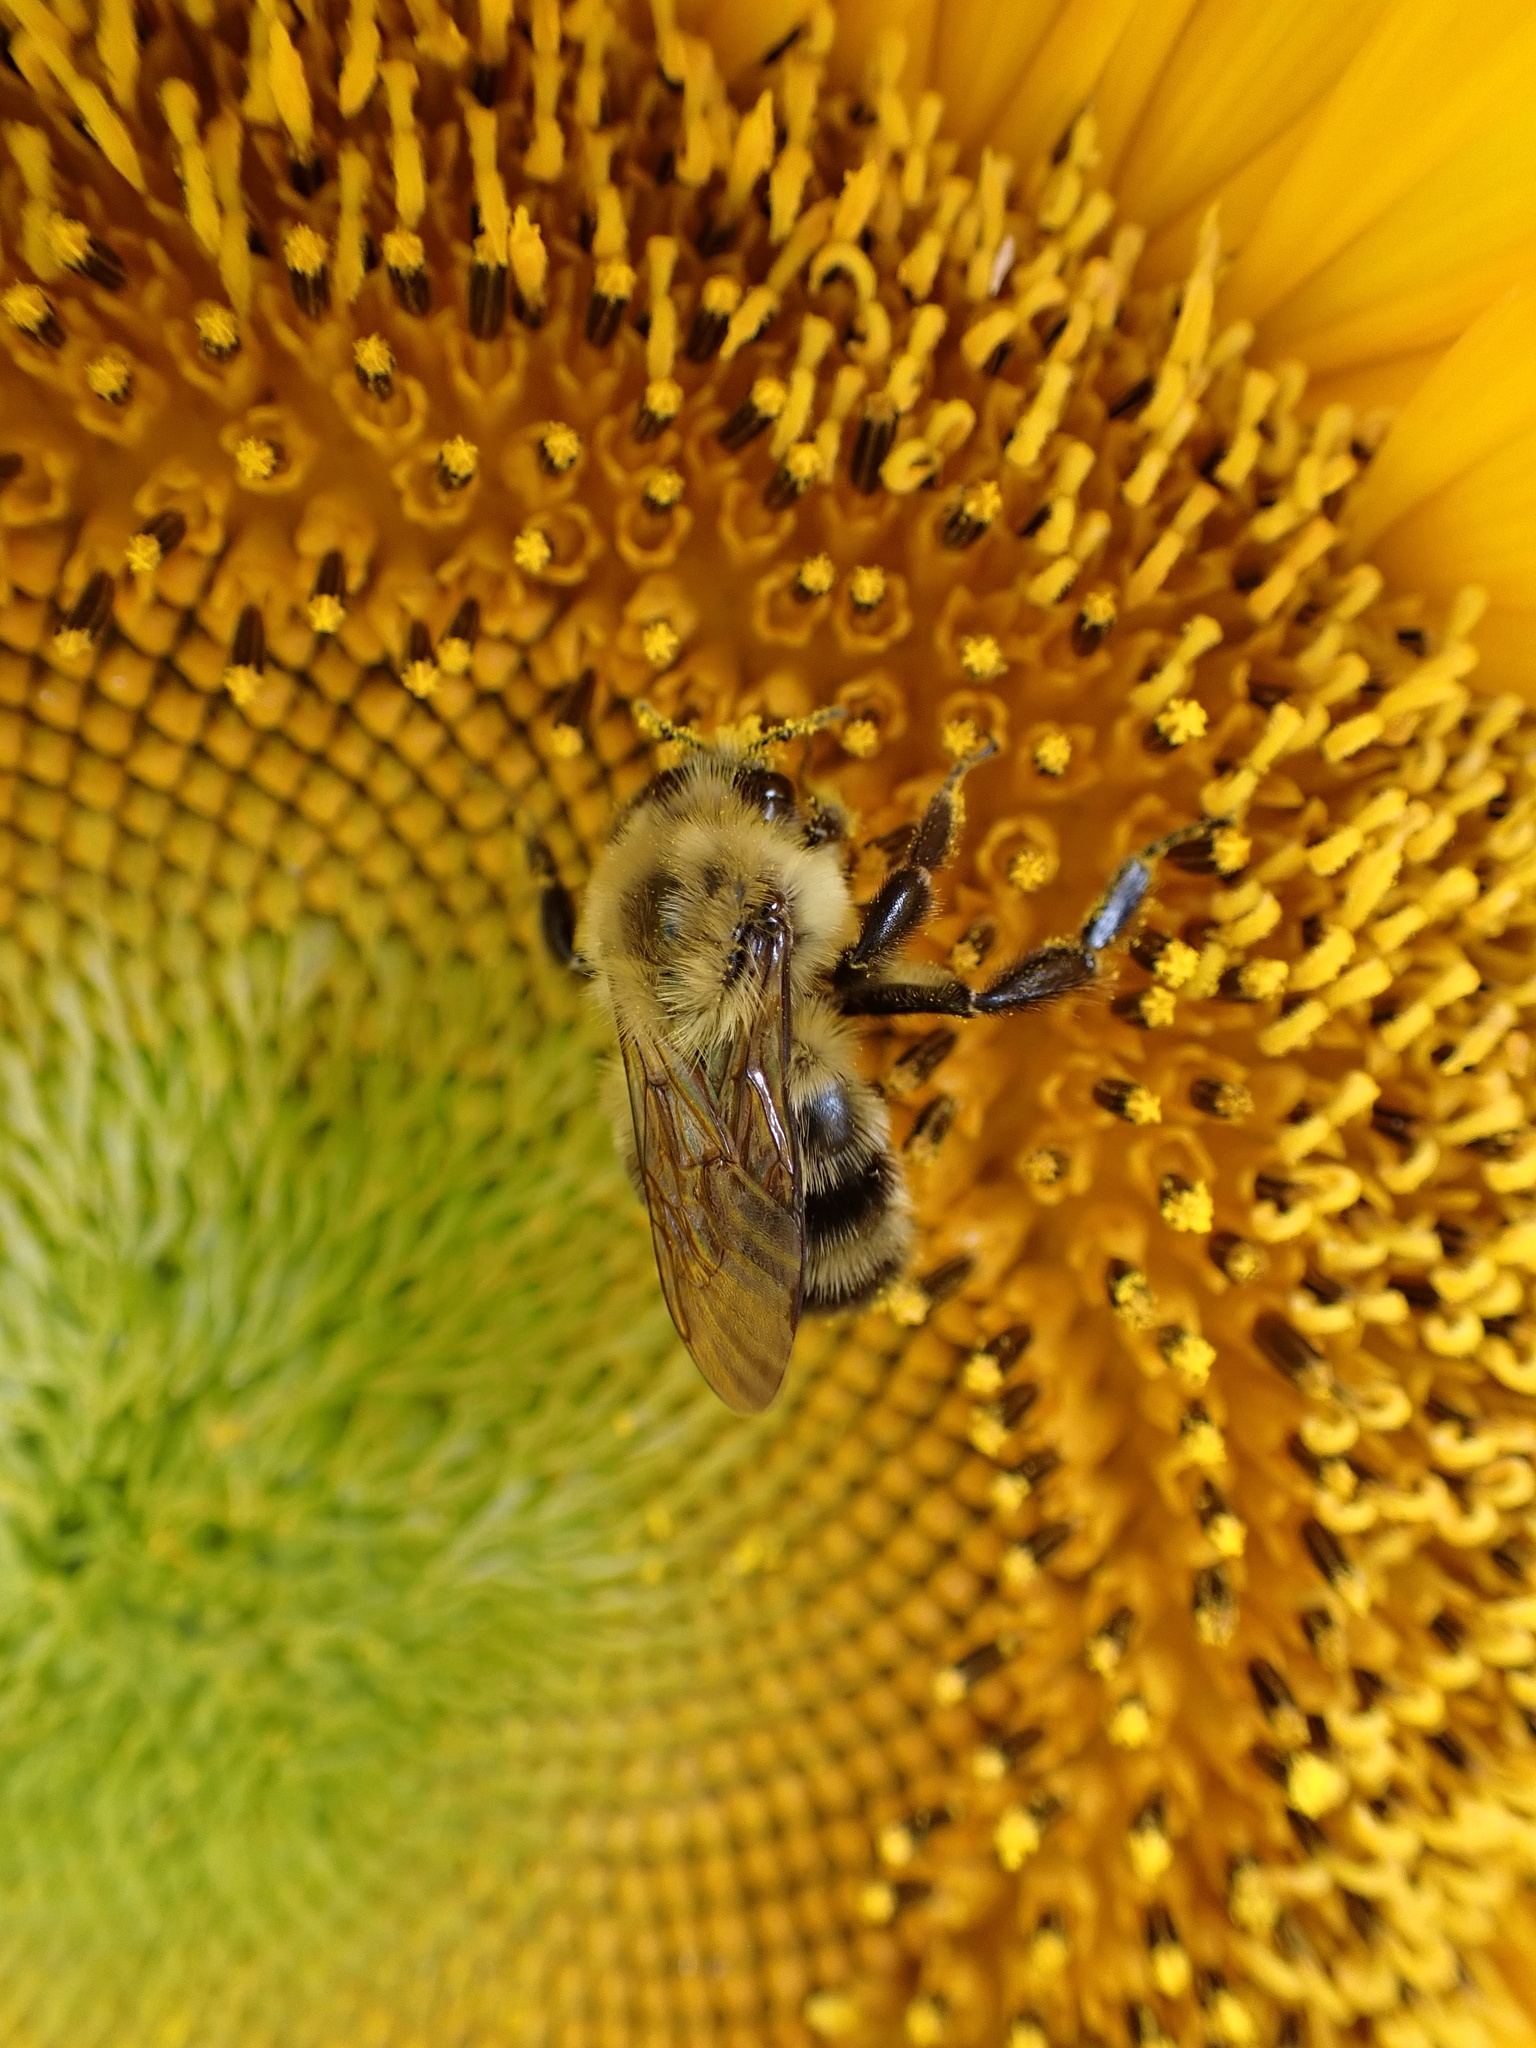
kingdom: Animalia
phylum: Arthropoda
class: Insecta
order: Hymenoptera
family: Apidae
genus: Bombus
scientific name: Bombus bimaculatus
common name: Two-spotted bumble bee
